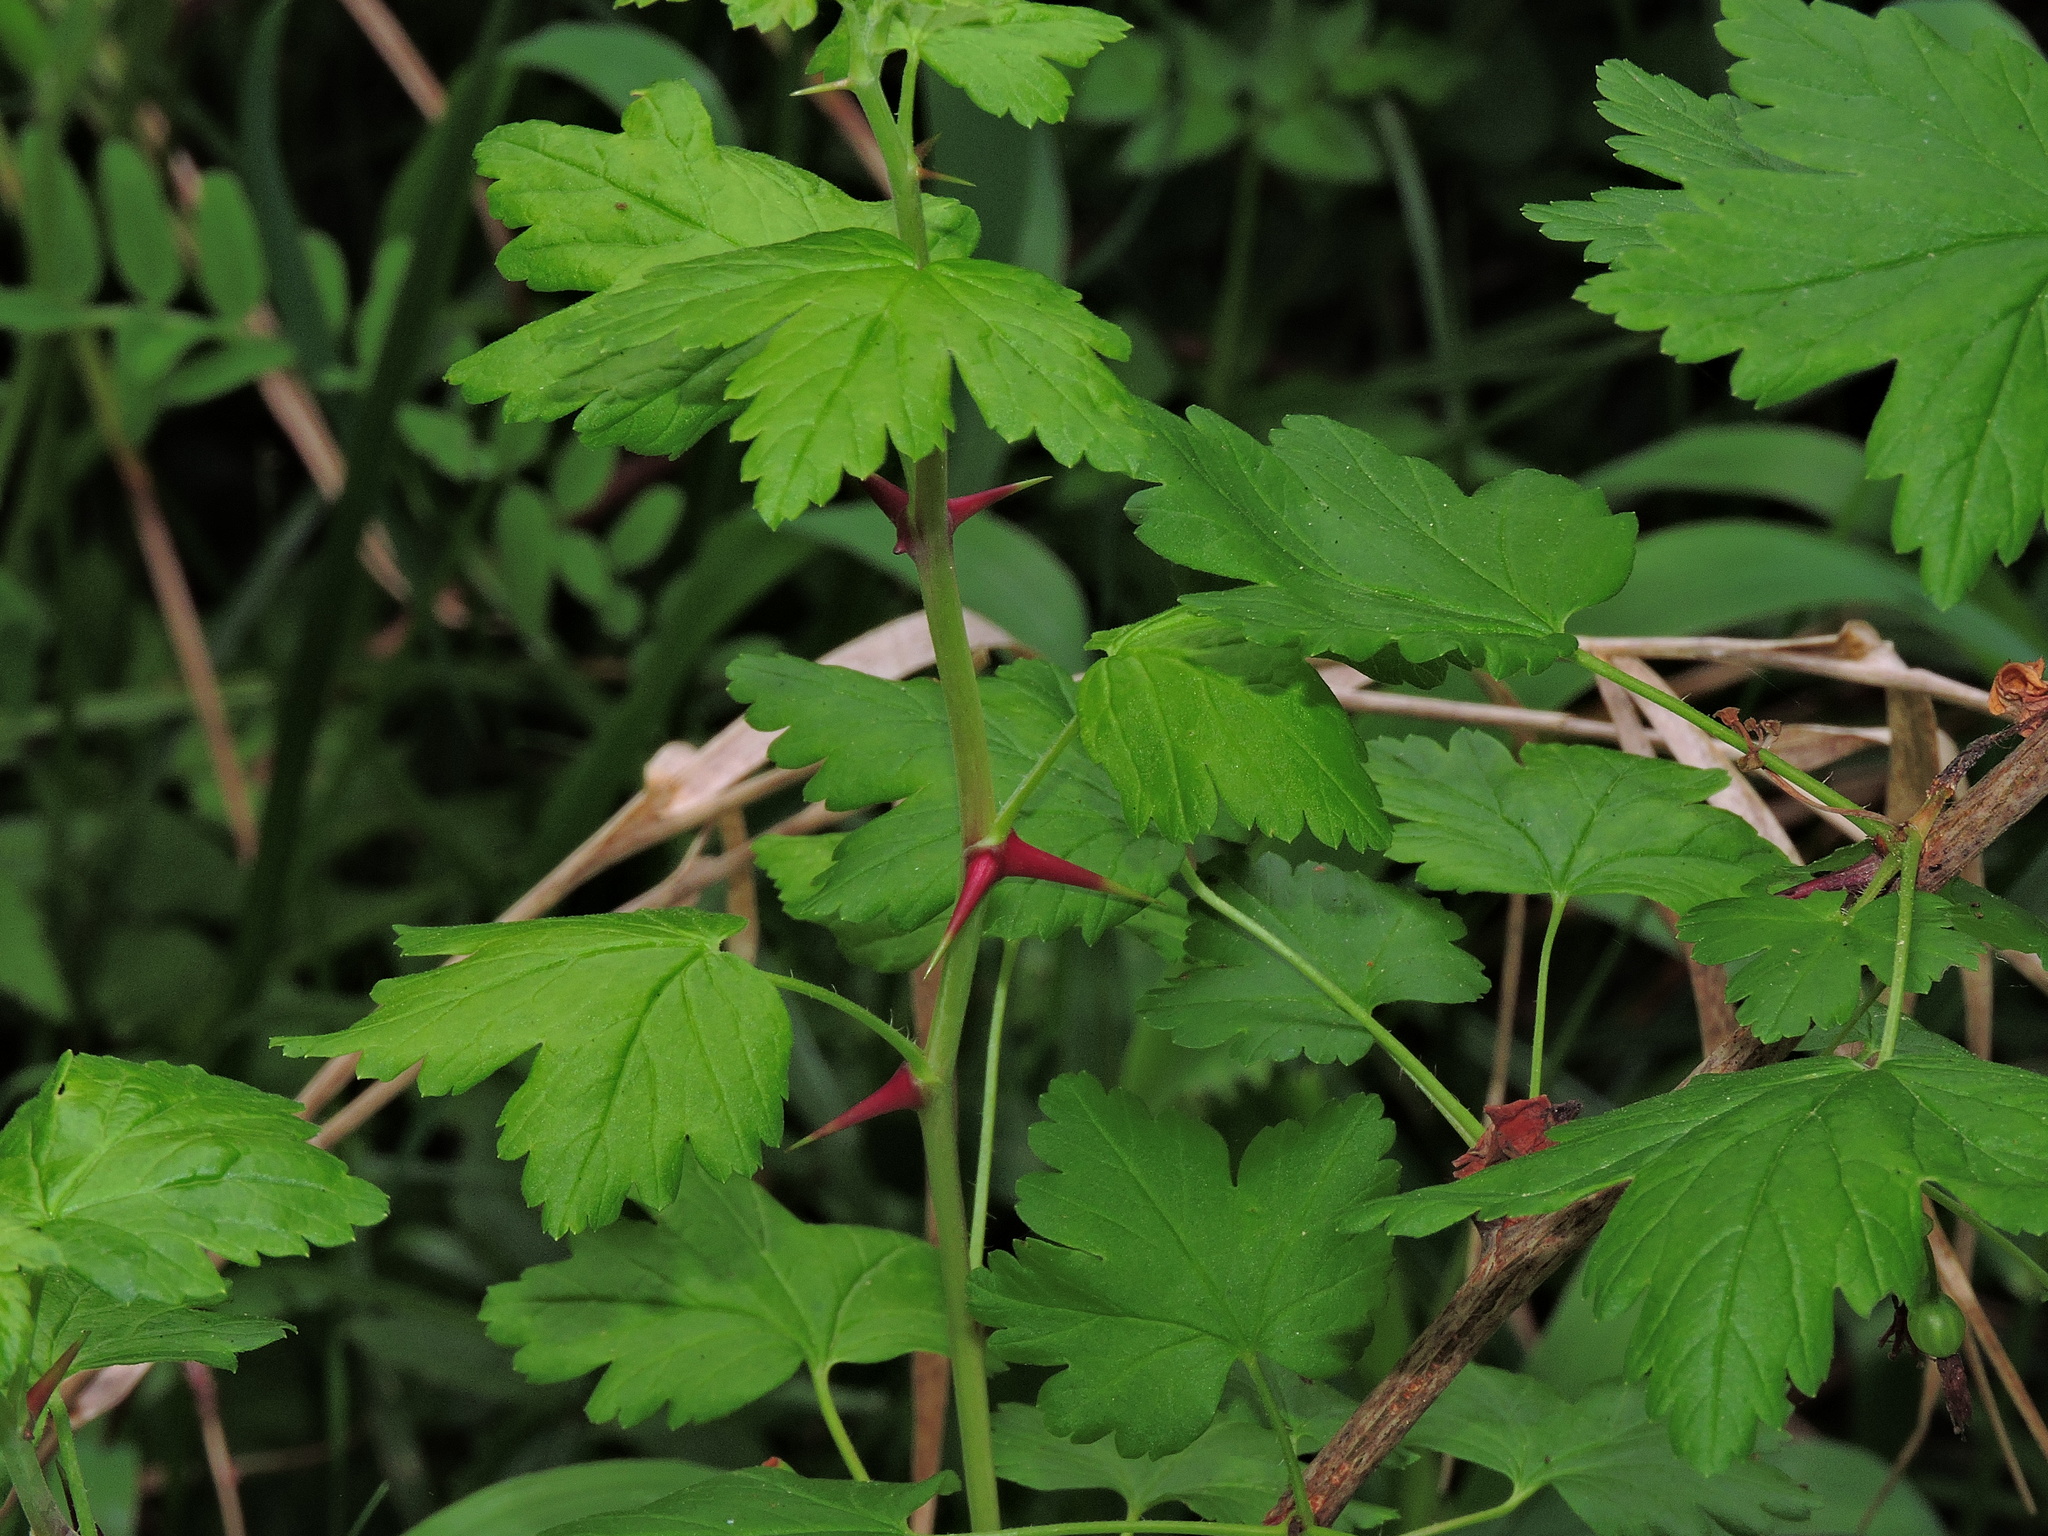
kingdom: Plantae
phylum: Tracheophyta
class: Magnoliopsida
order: Saxifragales
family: Grossulariaceae
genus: Ribes
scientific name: Ribes divaricatum
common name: Wild black gooseberry
